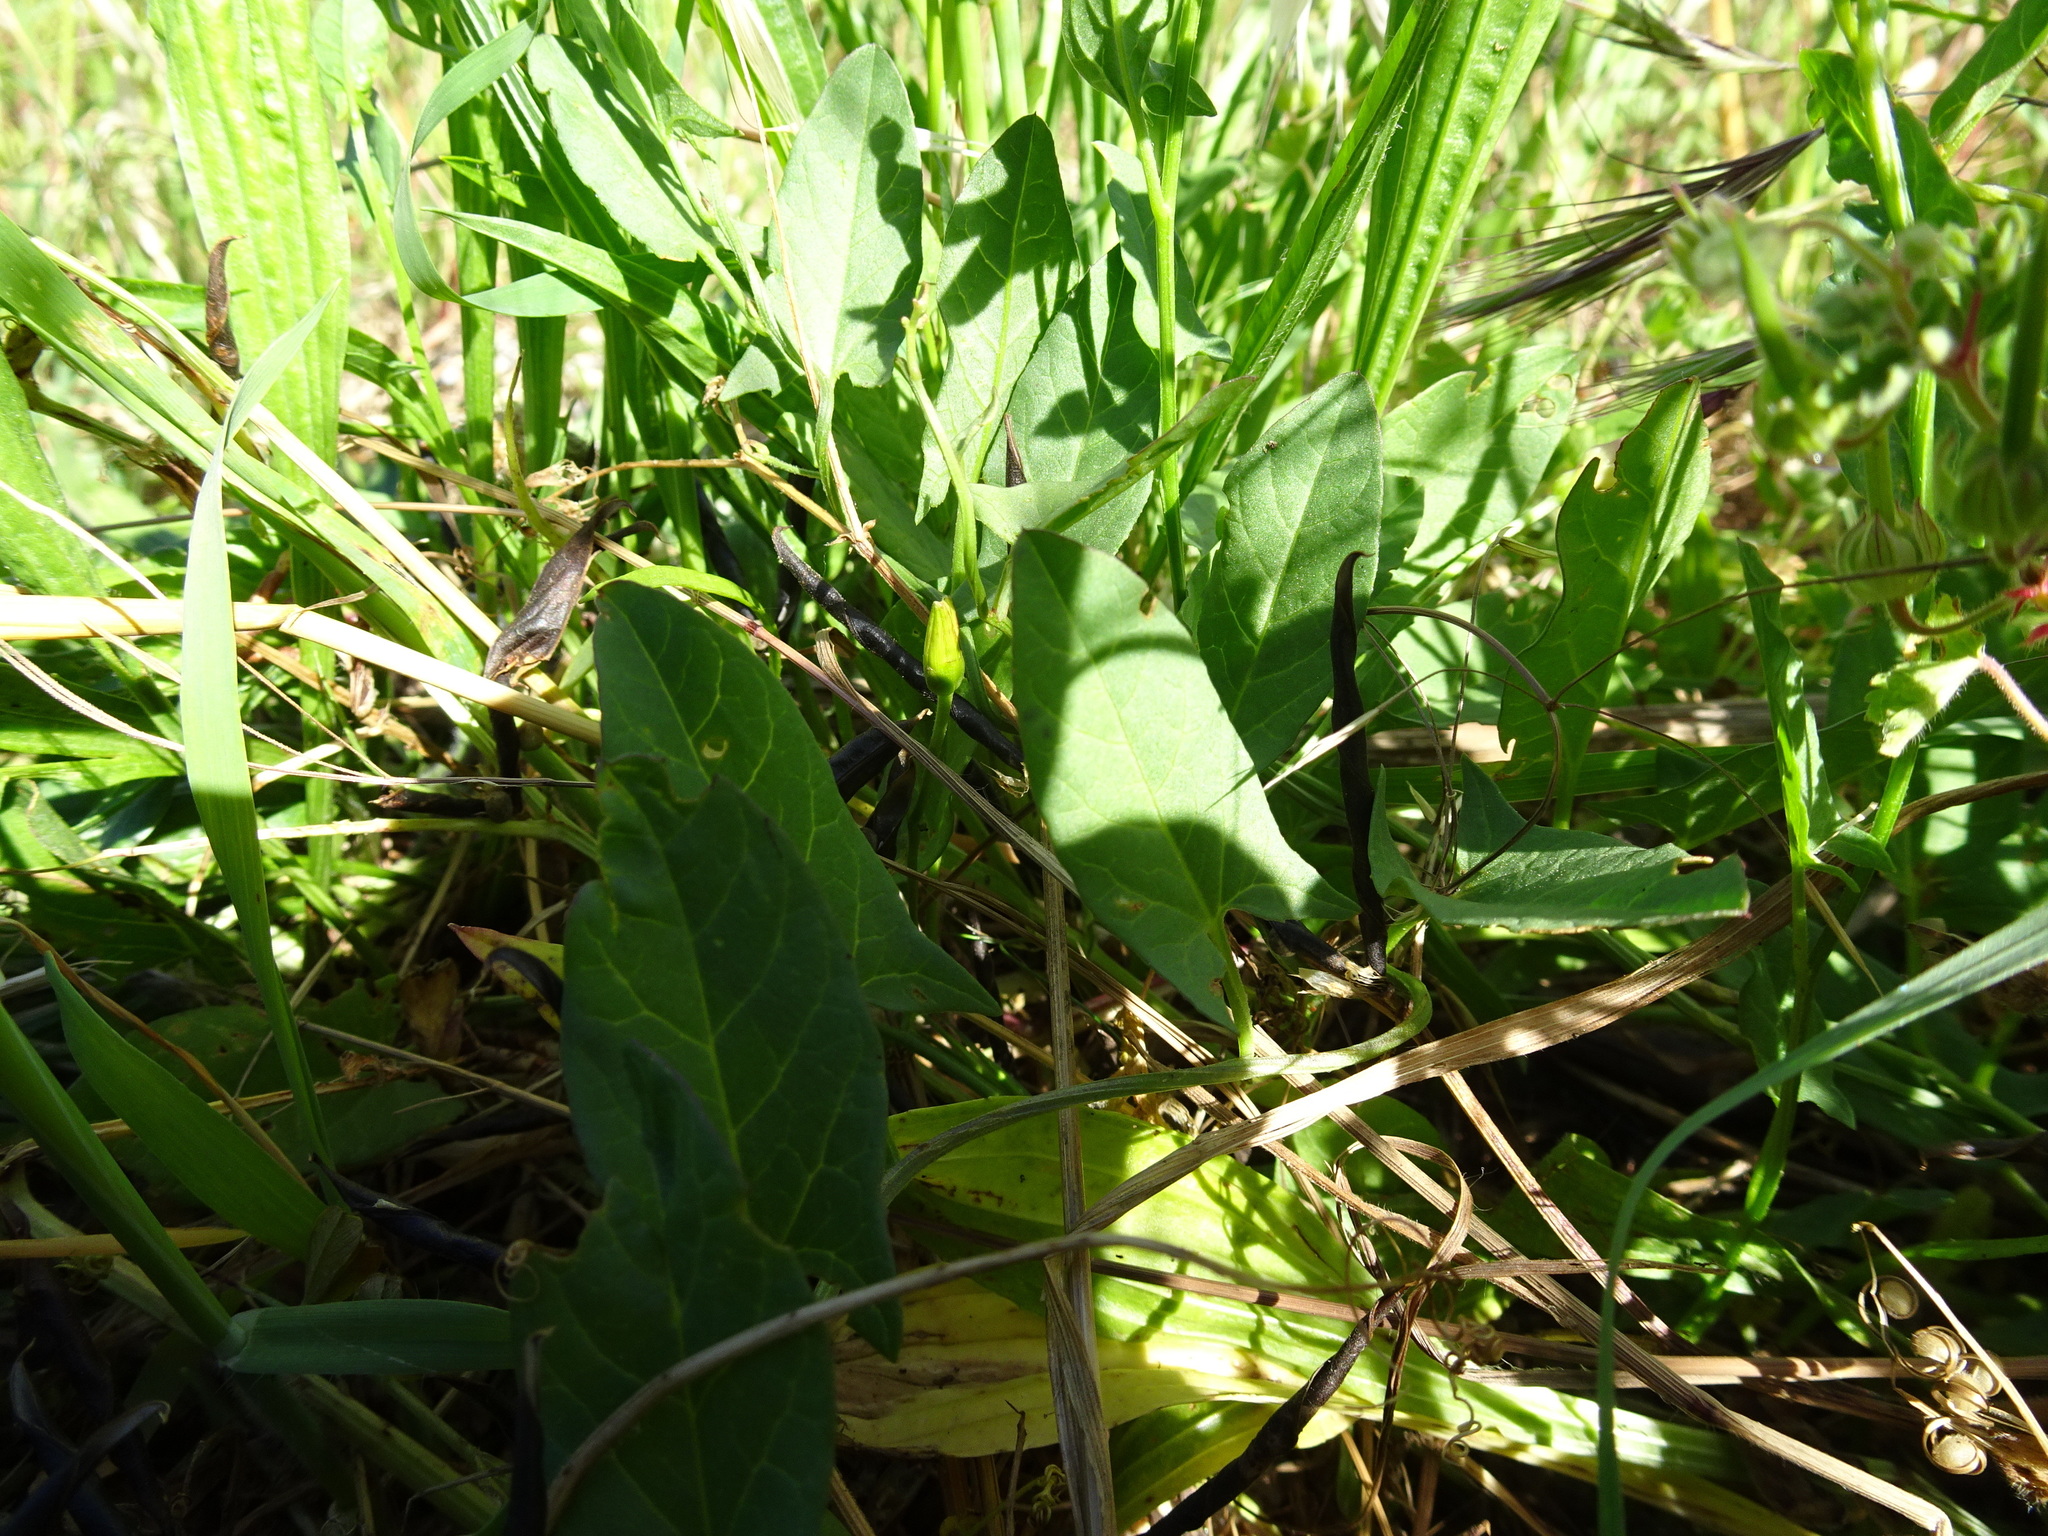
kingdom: Plantae
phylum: Tracheophyta
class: Magnoliopsida
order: Solanales
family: Convolvulaceae
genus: Convolvulus
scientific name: Convolvulus arvensis
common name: Field bindweed
